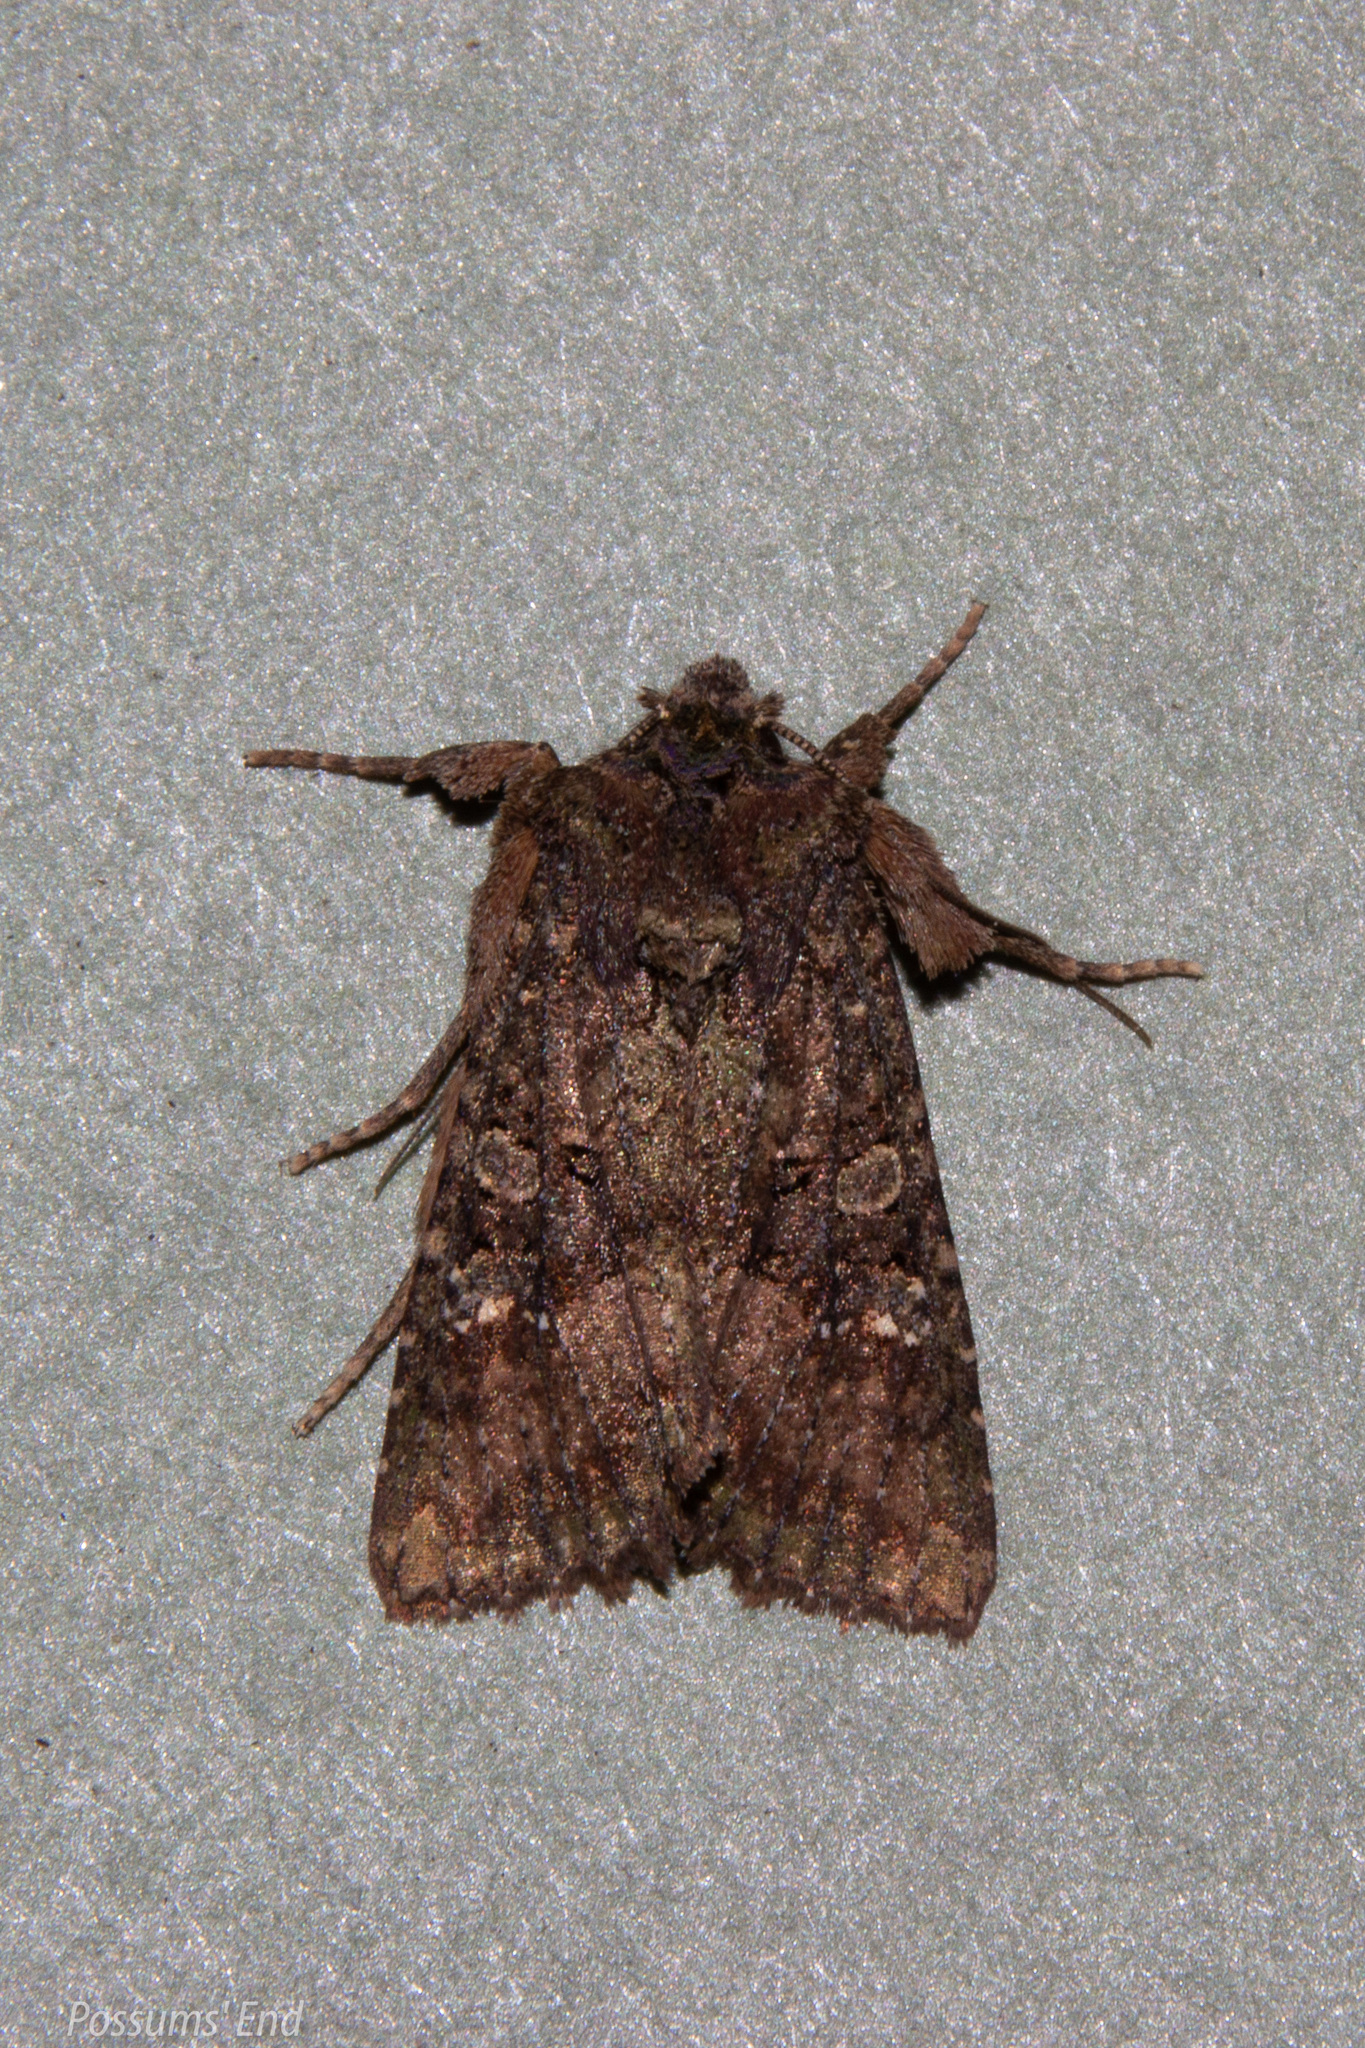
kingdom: Animalia
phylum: Arthropoda
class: Insecta
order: Lepidoptera
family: Noctuidae
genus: Meterana
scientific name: Meterana ochthistis
